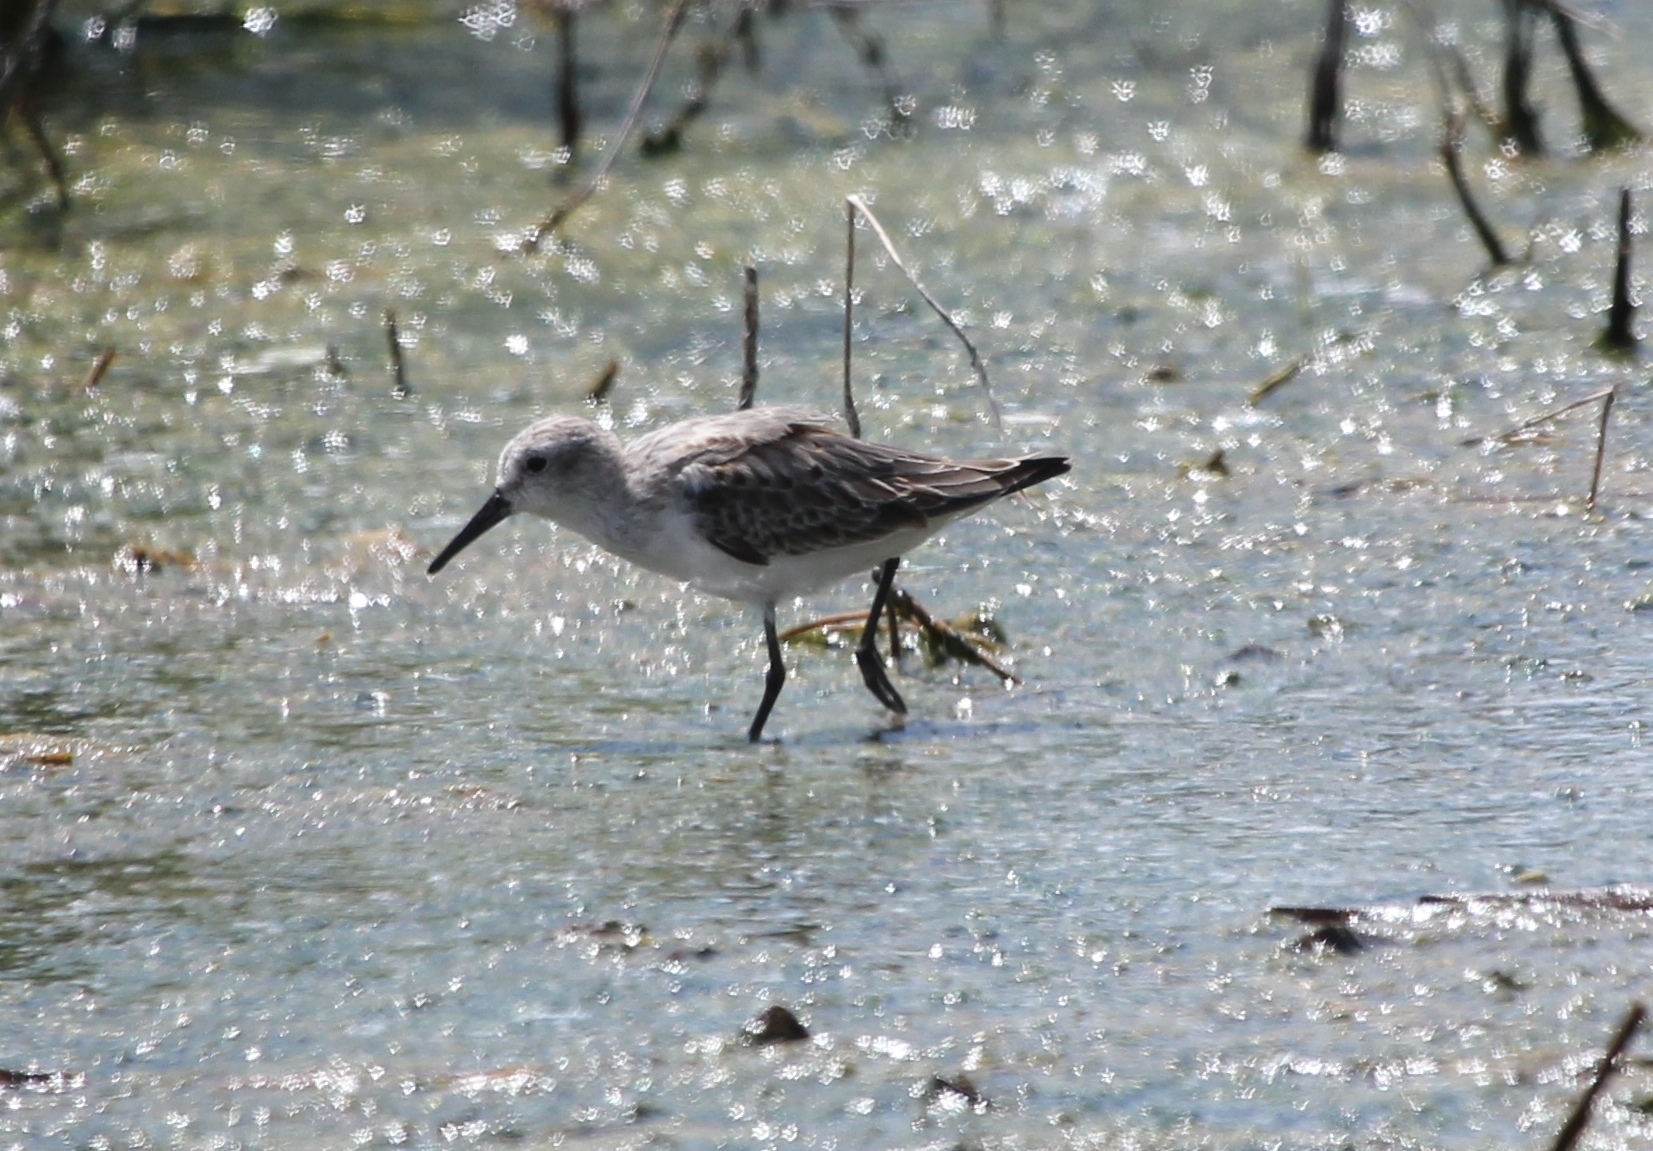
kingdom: Animalia
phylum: Chordata
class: Aves
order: Charadriiformes
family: Scolopacidae
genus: Calidris
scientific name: Calidris mauri
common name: Western sandpiper
